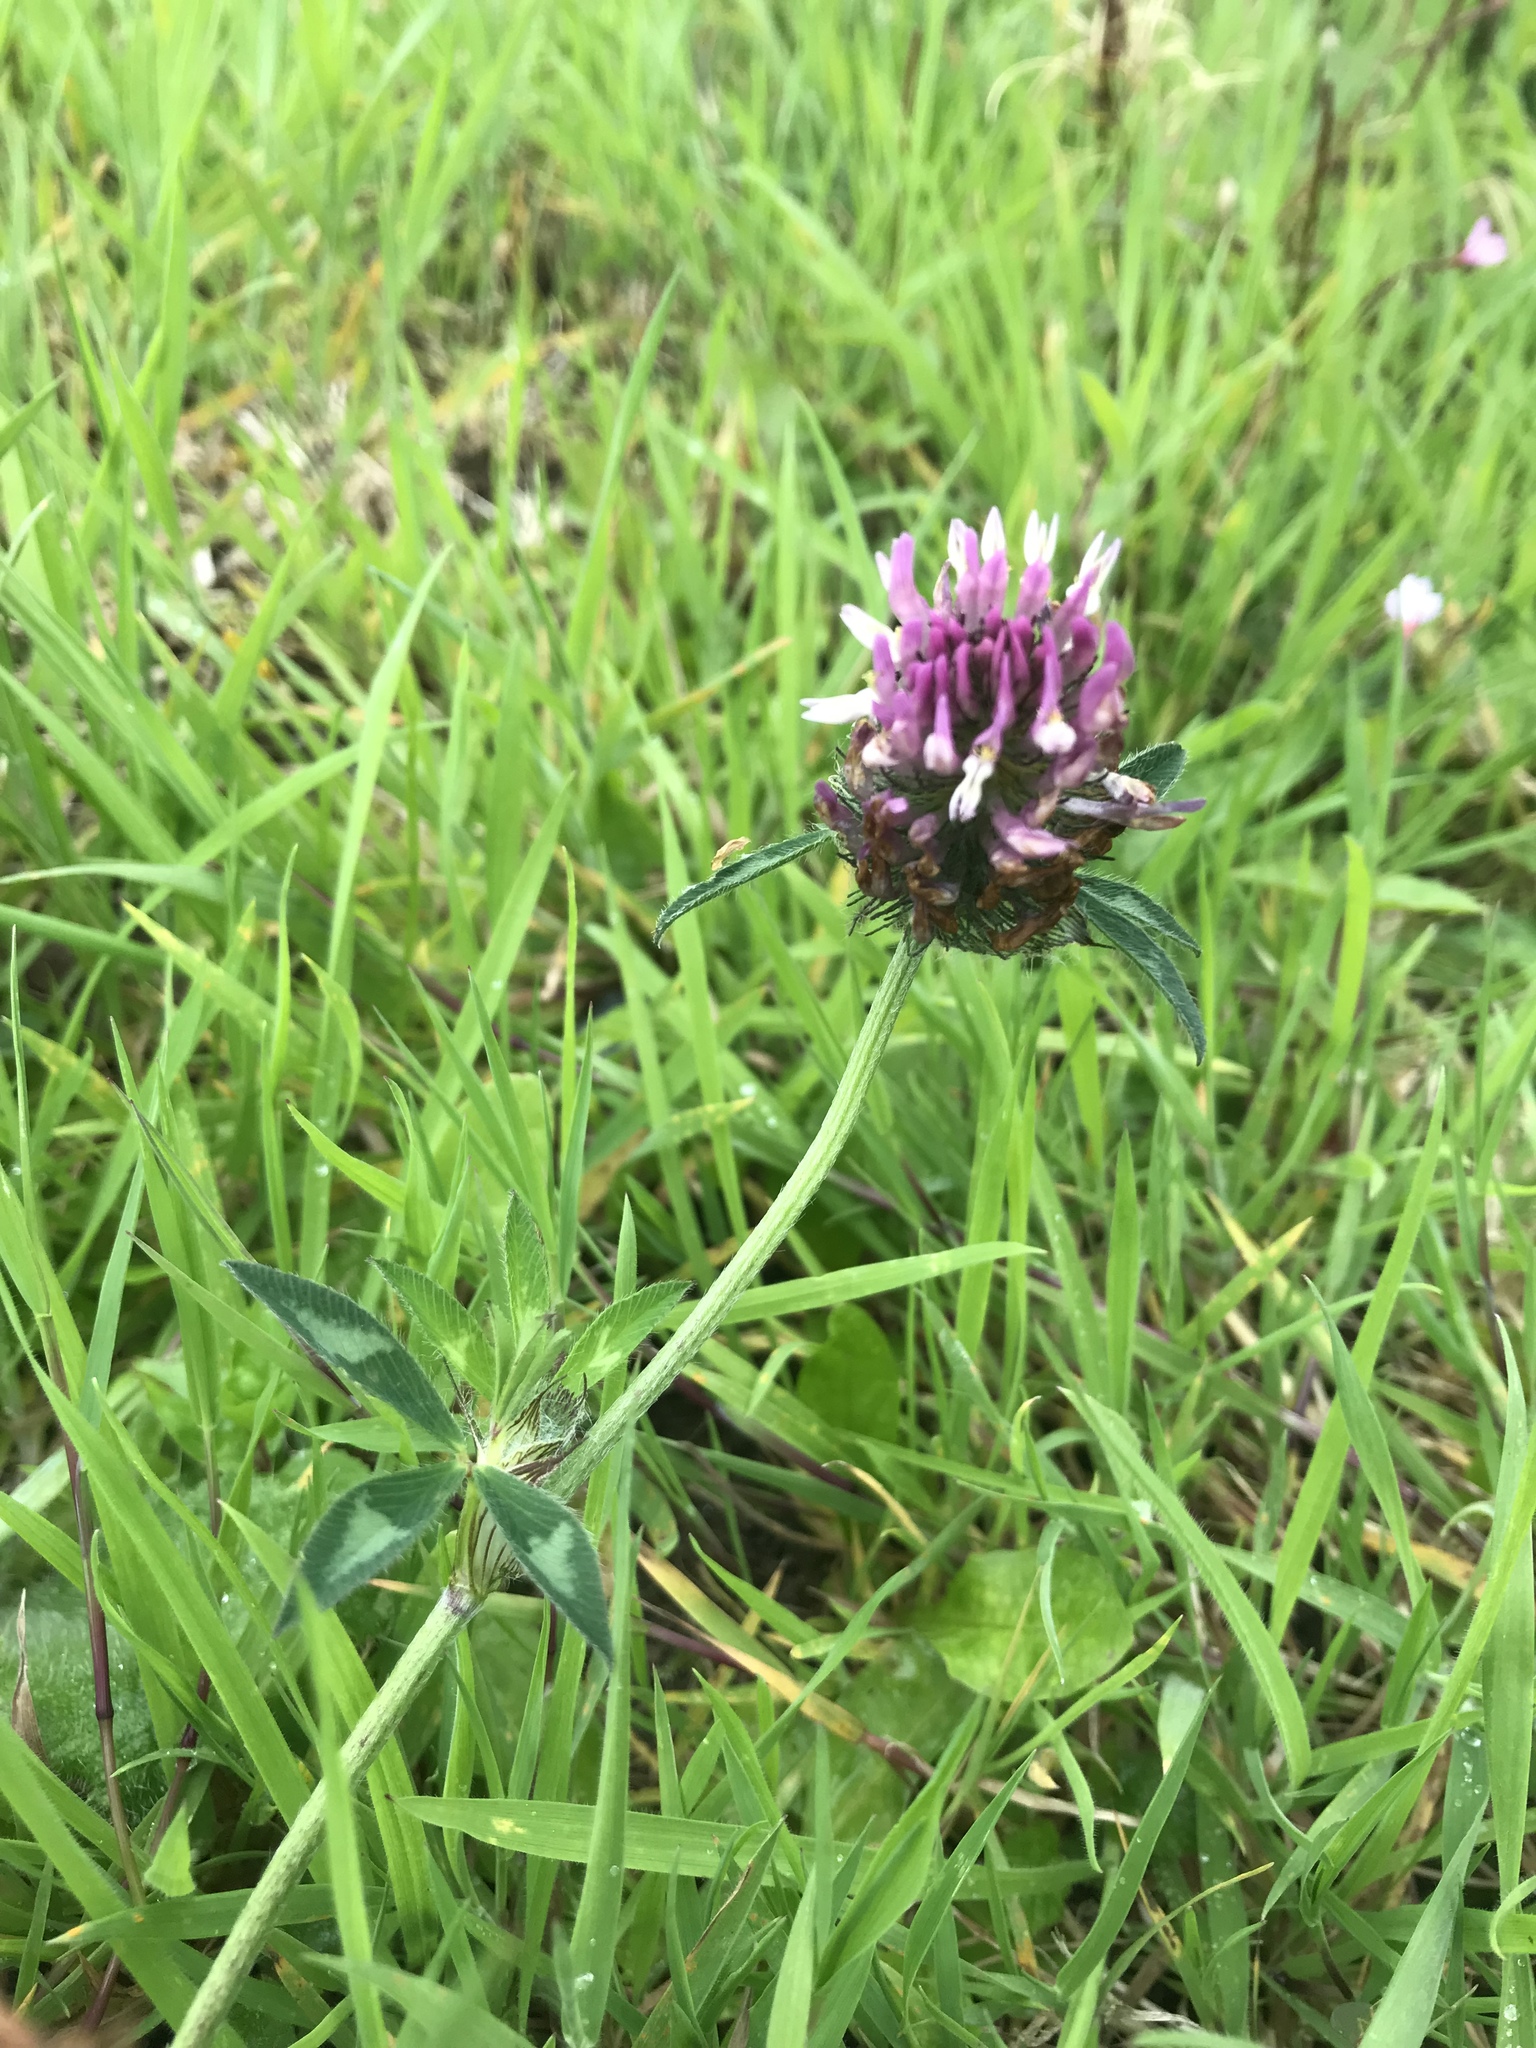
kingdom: Plantae
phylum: Tracheophyta
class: Magnoliopsida
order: Fabales
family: Fabaceae
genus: Trifolium
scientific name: Trifolium pratense
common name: Red clover
